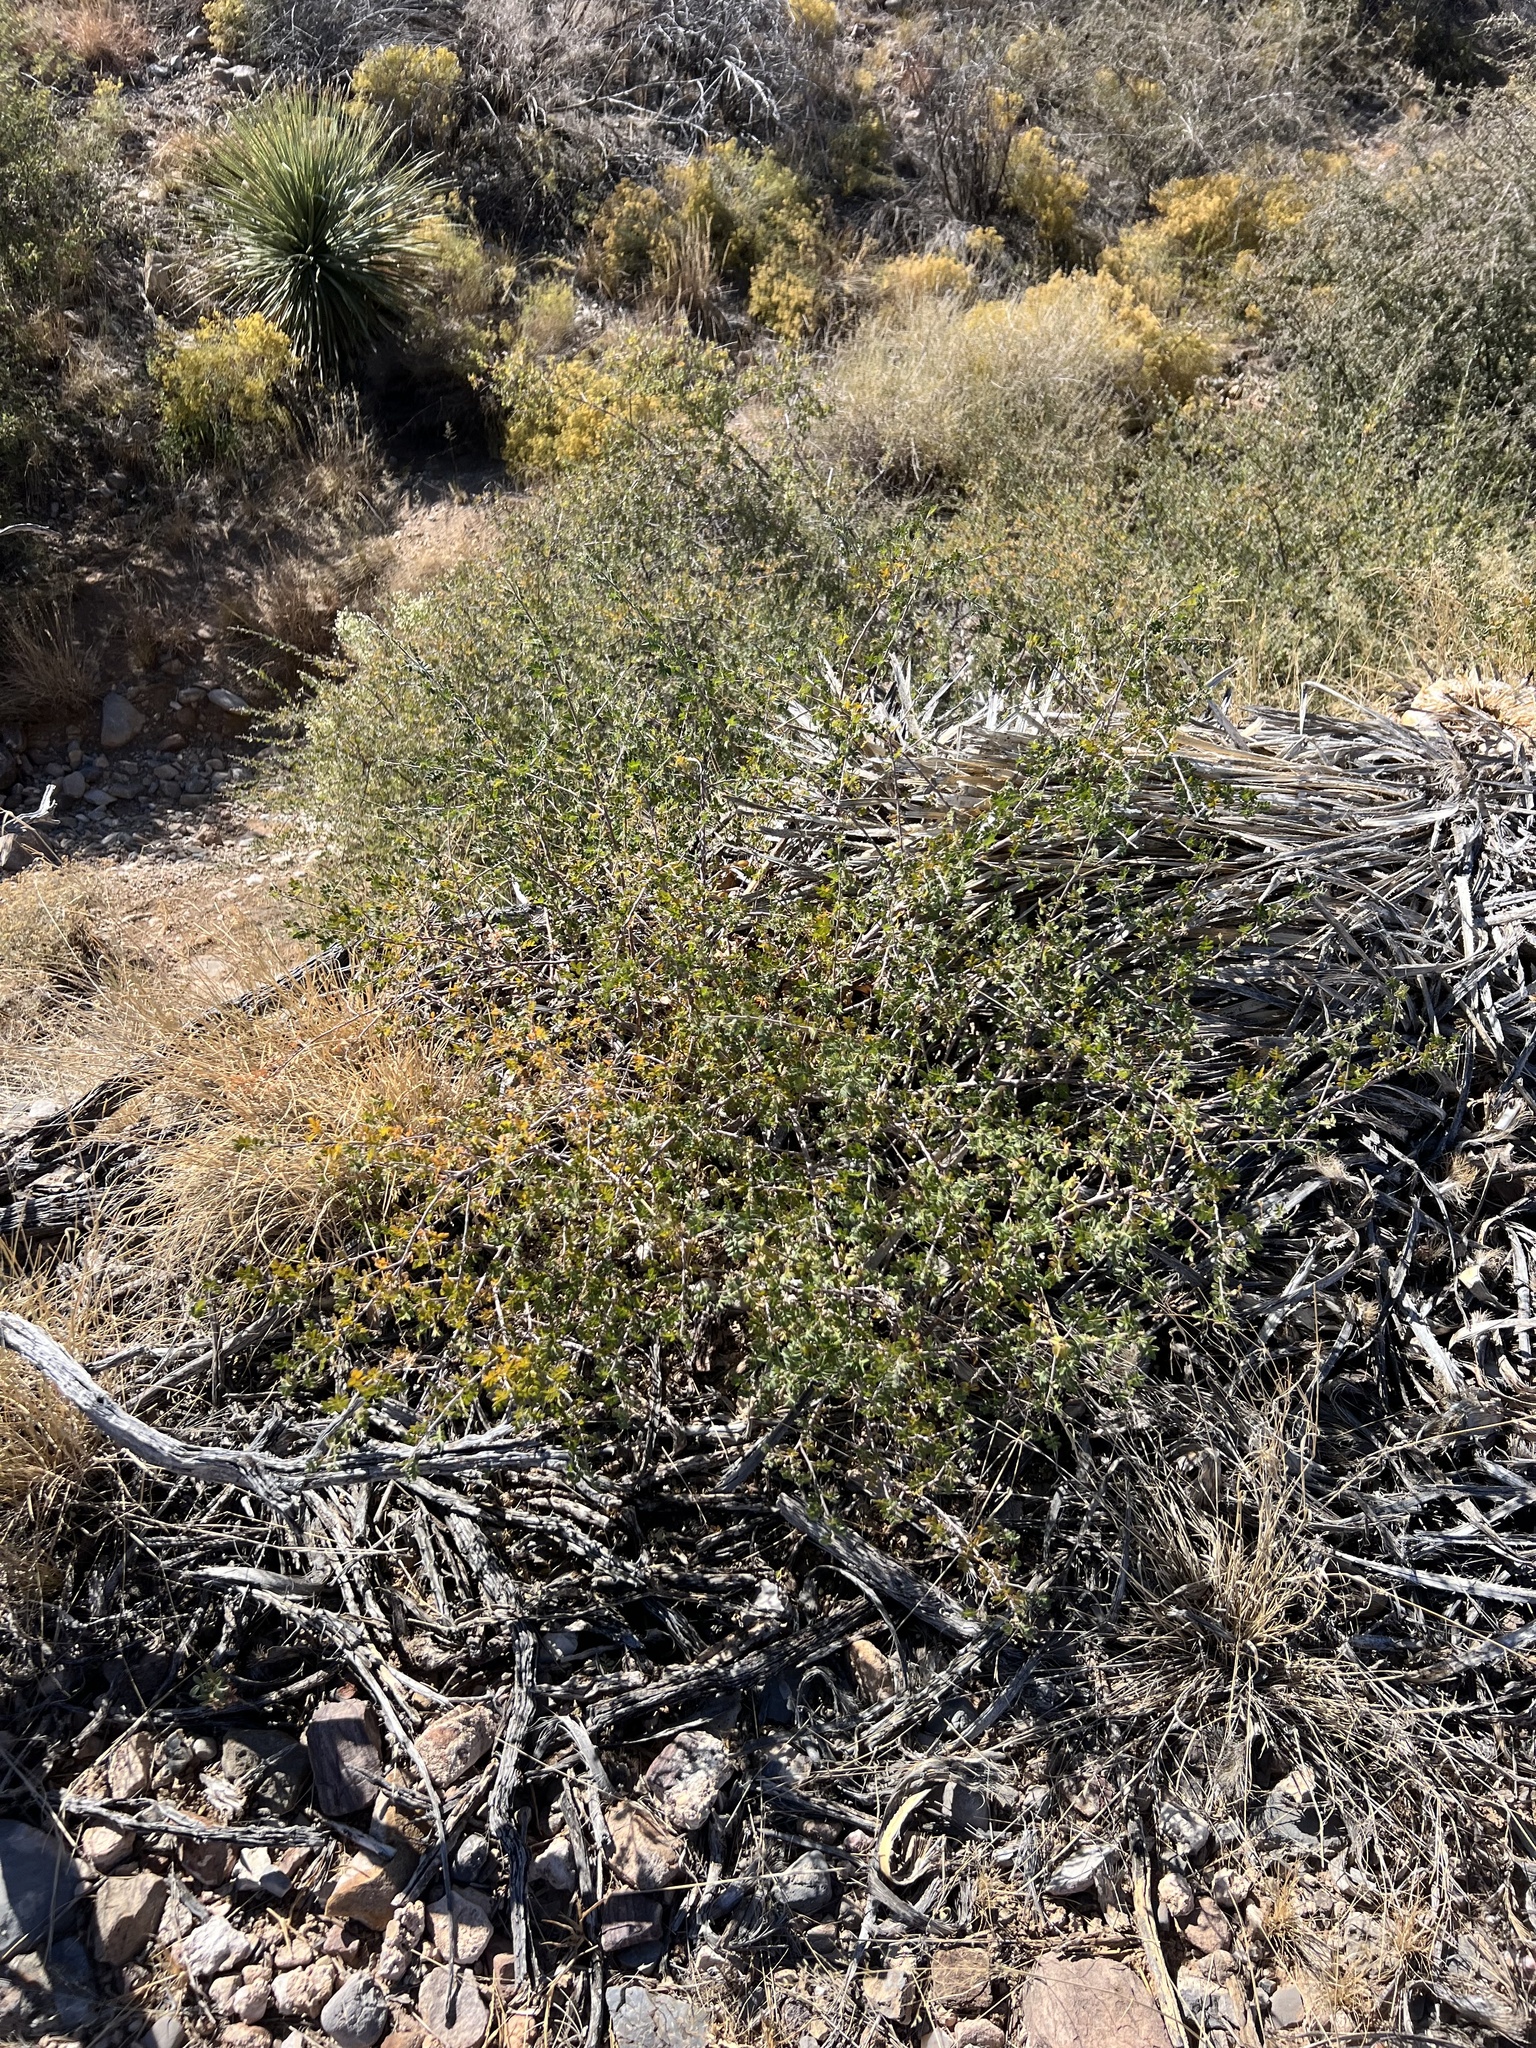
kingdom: Plantae
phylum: Tracheophyta
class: Magnoliopsida
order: Sapindales
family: Anacardiaceae
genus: Rhus
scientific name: Rhus microphylla
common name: Desert sumac
